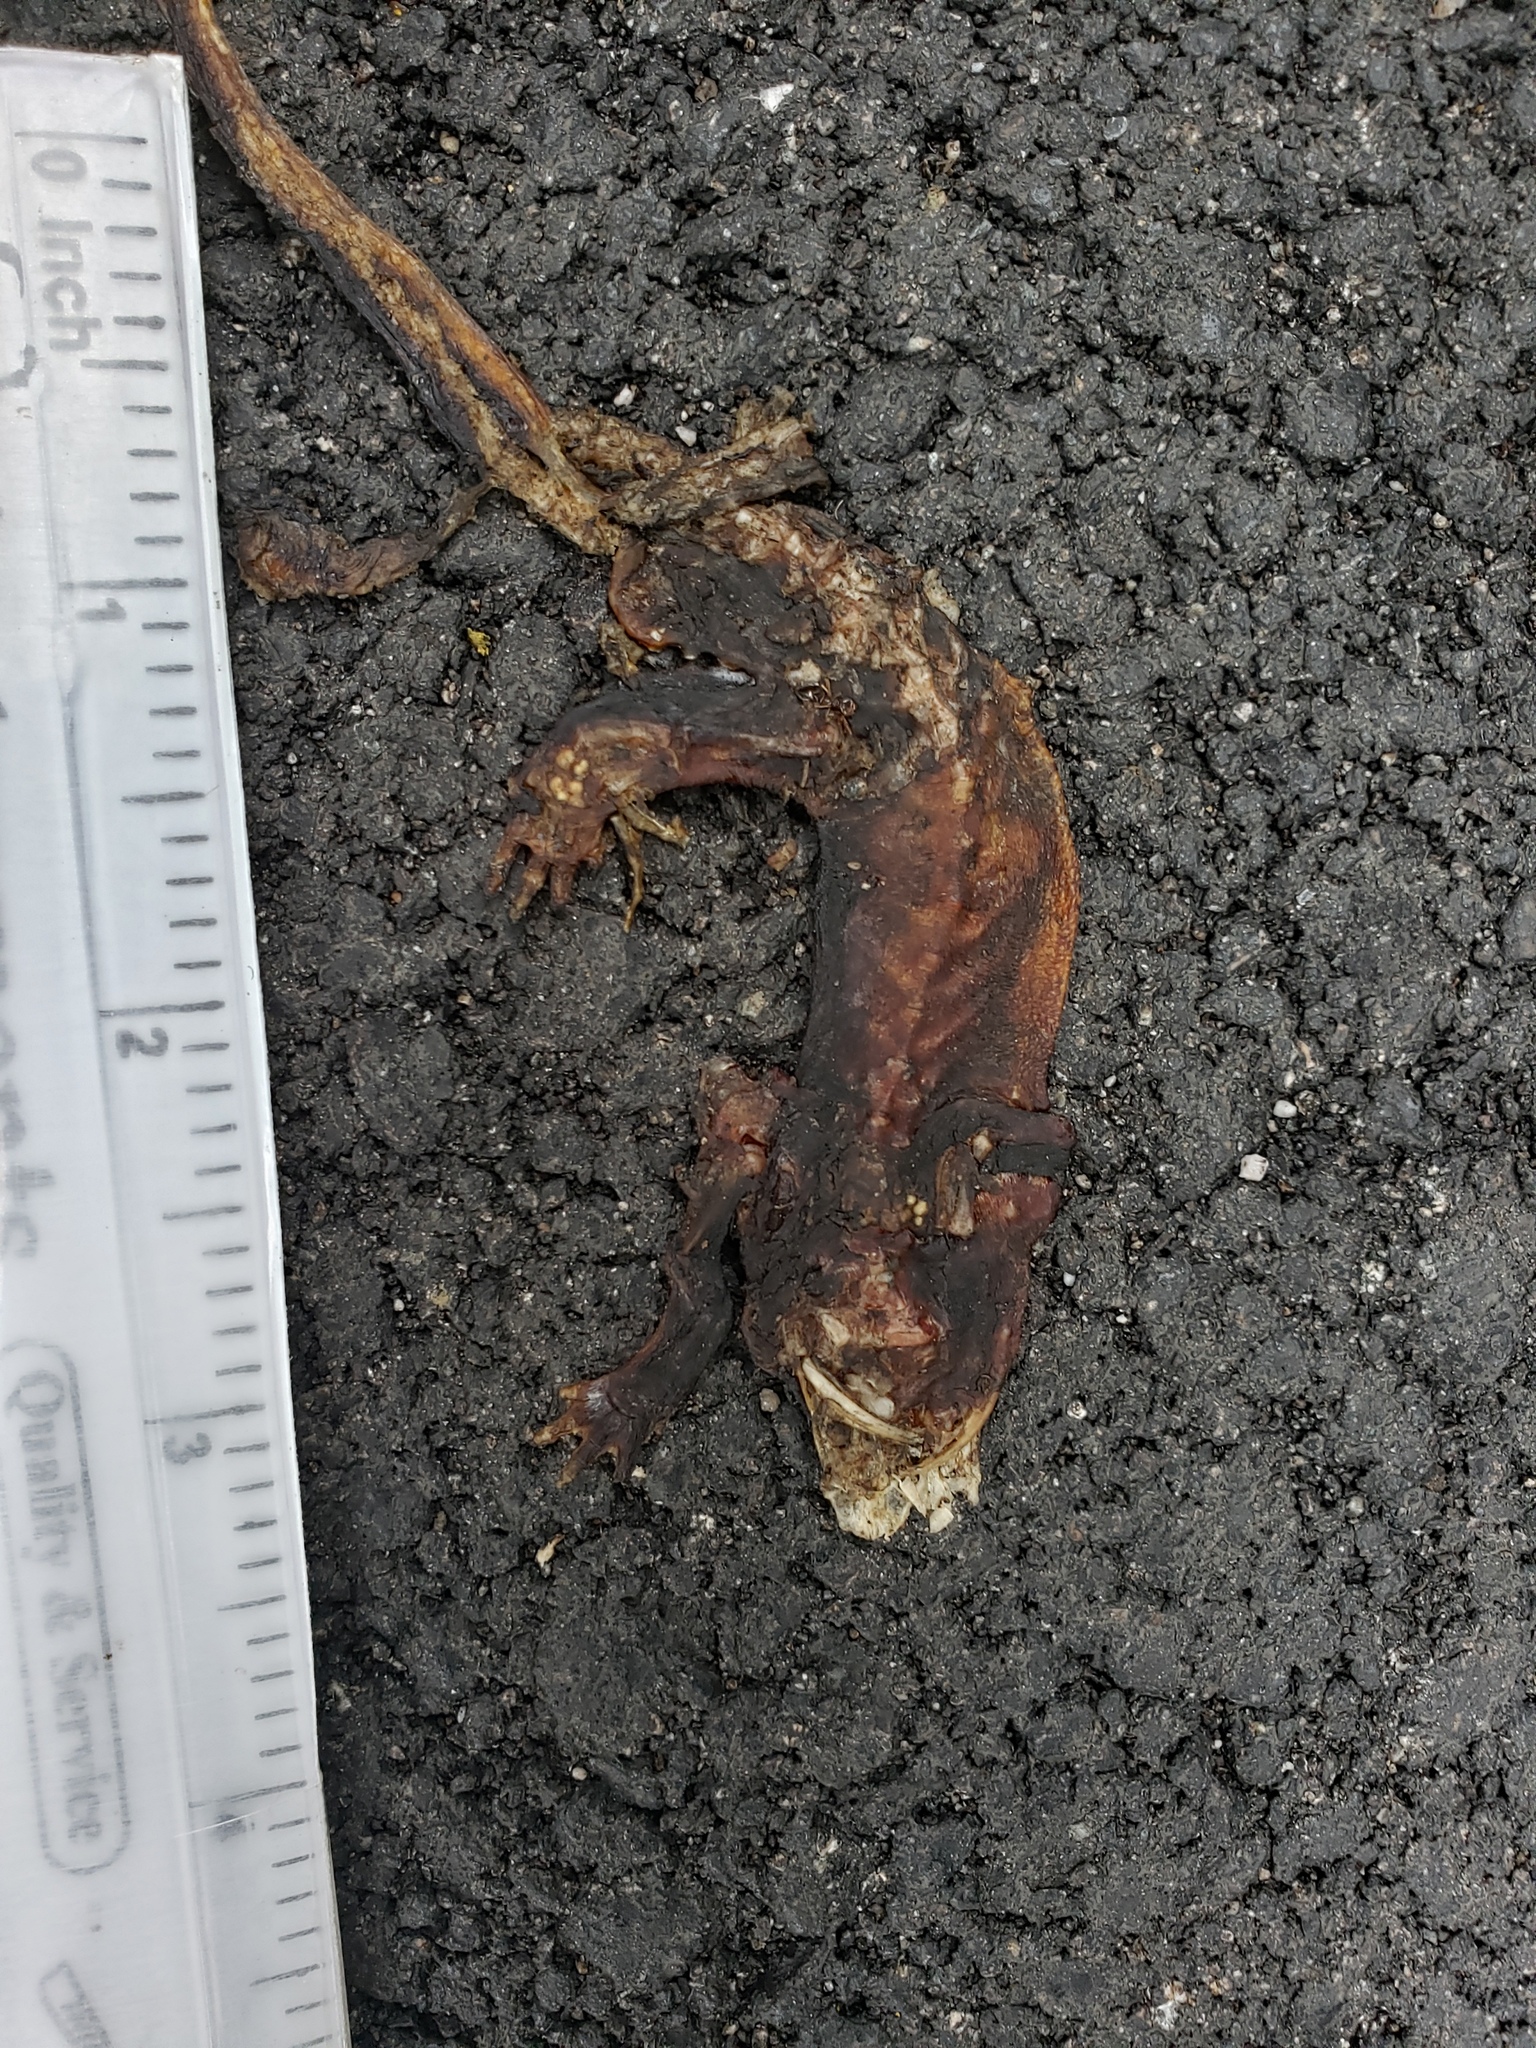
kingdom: Animalia
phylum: Chordata
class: Amphibia
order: Caudata
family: Salamandridae
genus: Taricha
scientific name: Taricha
